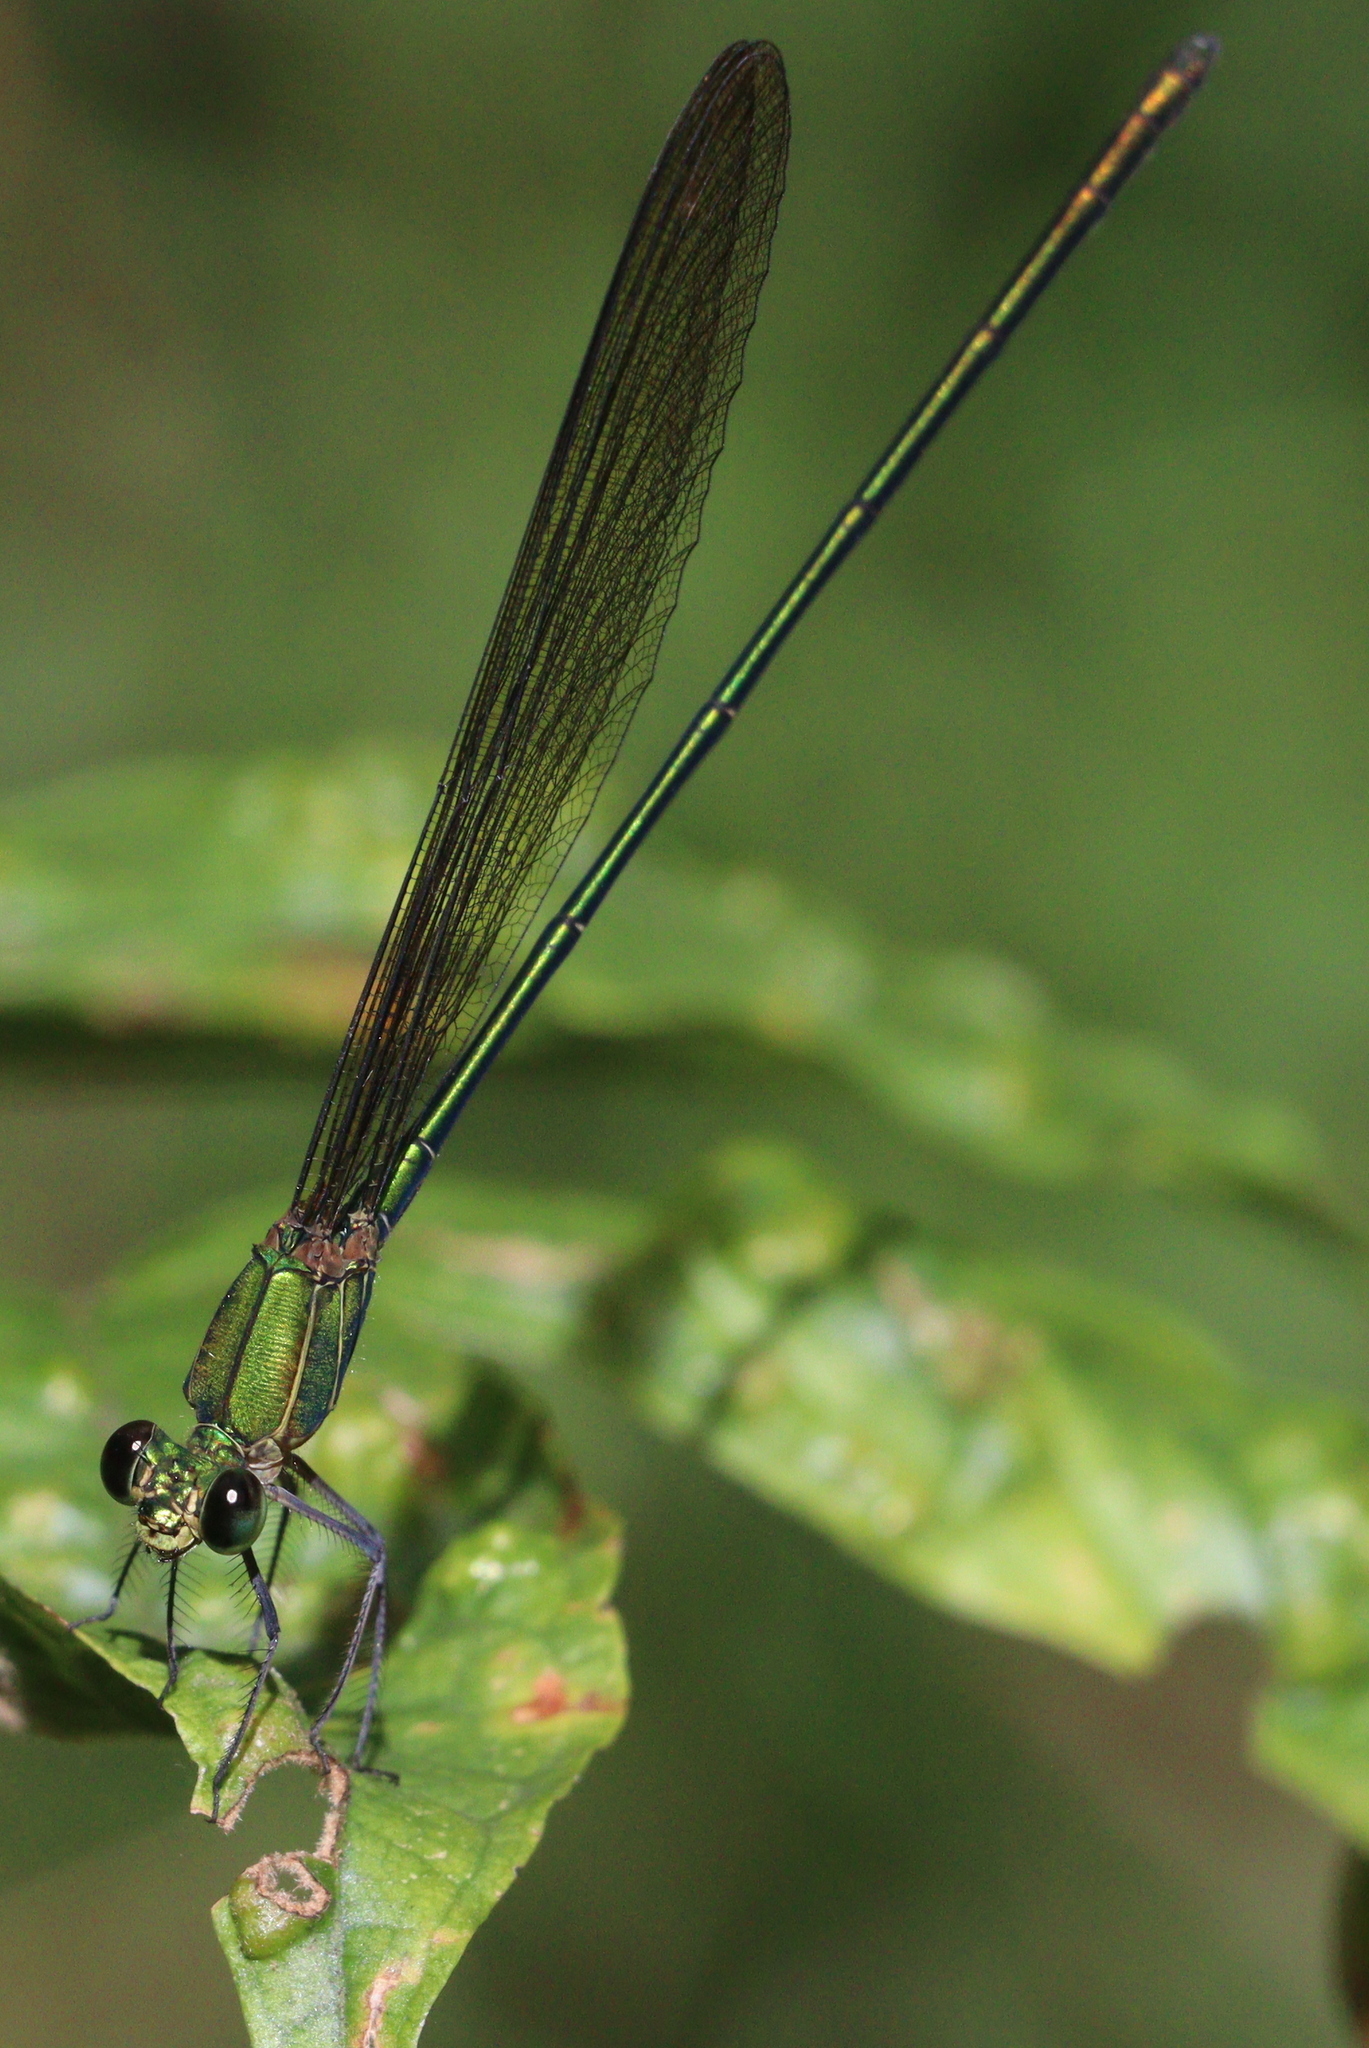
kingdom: Animalia
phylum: Arthropoda
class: Insecta
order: Odonata
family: Calopterygidae
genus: Vestalis
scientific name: Vestalis gracilis
